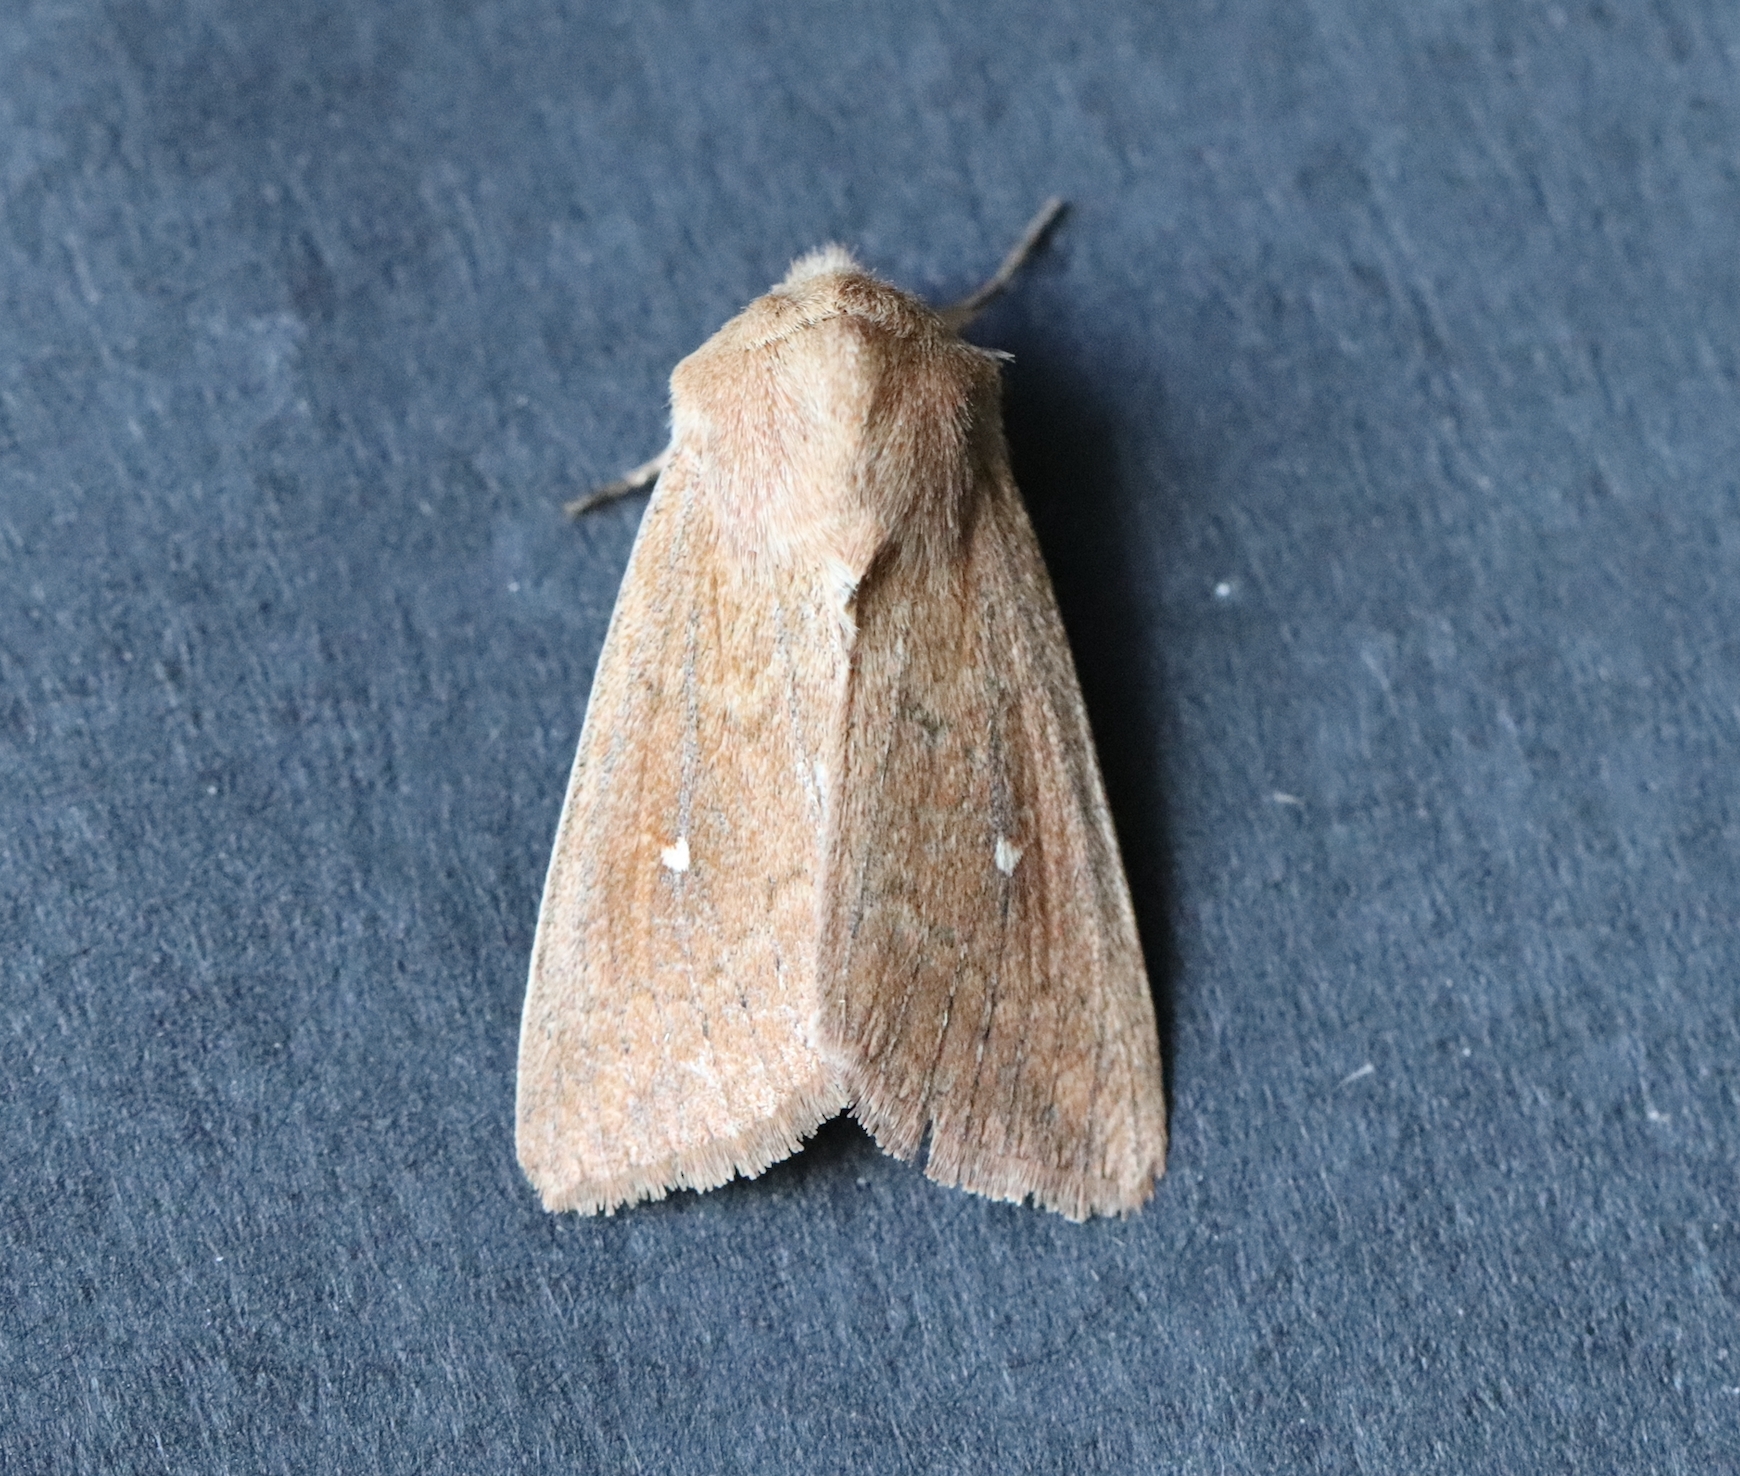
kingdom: Animalia
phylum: Arthropoda
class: Insecta
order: Lepidoptera
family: Noctuidae
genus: Mythimna
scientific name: Mythimna albipuncta
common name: White-point
